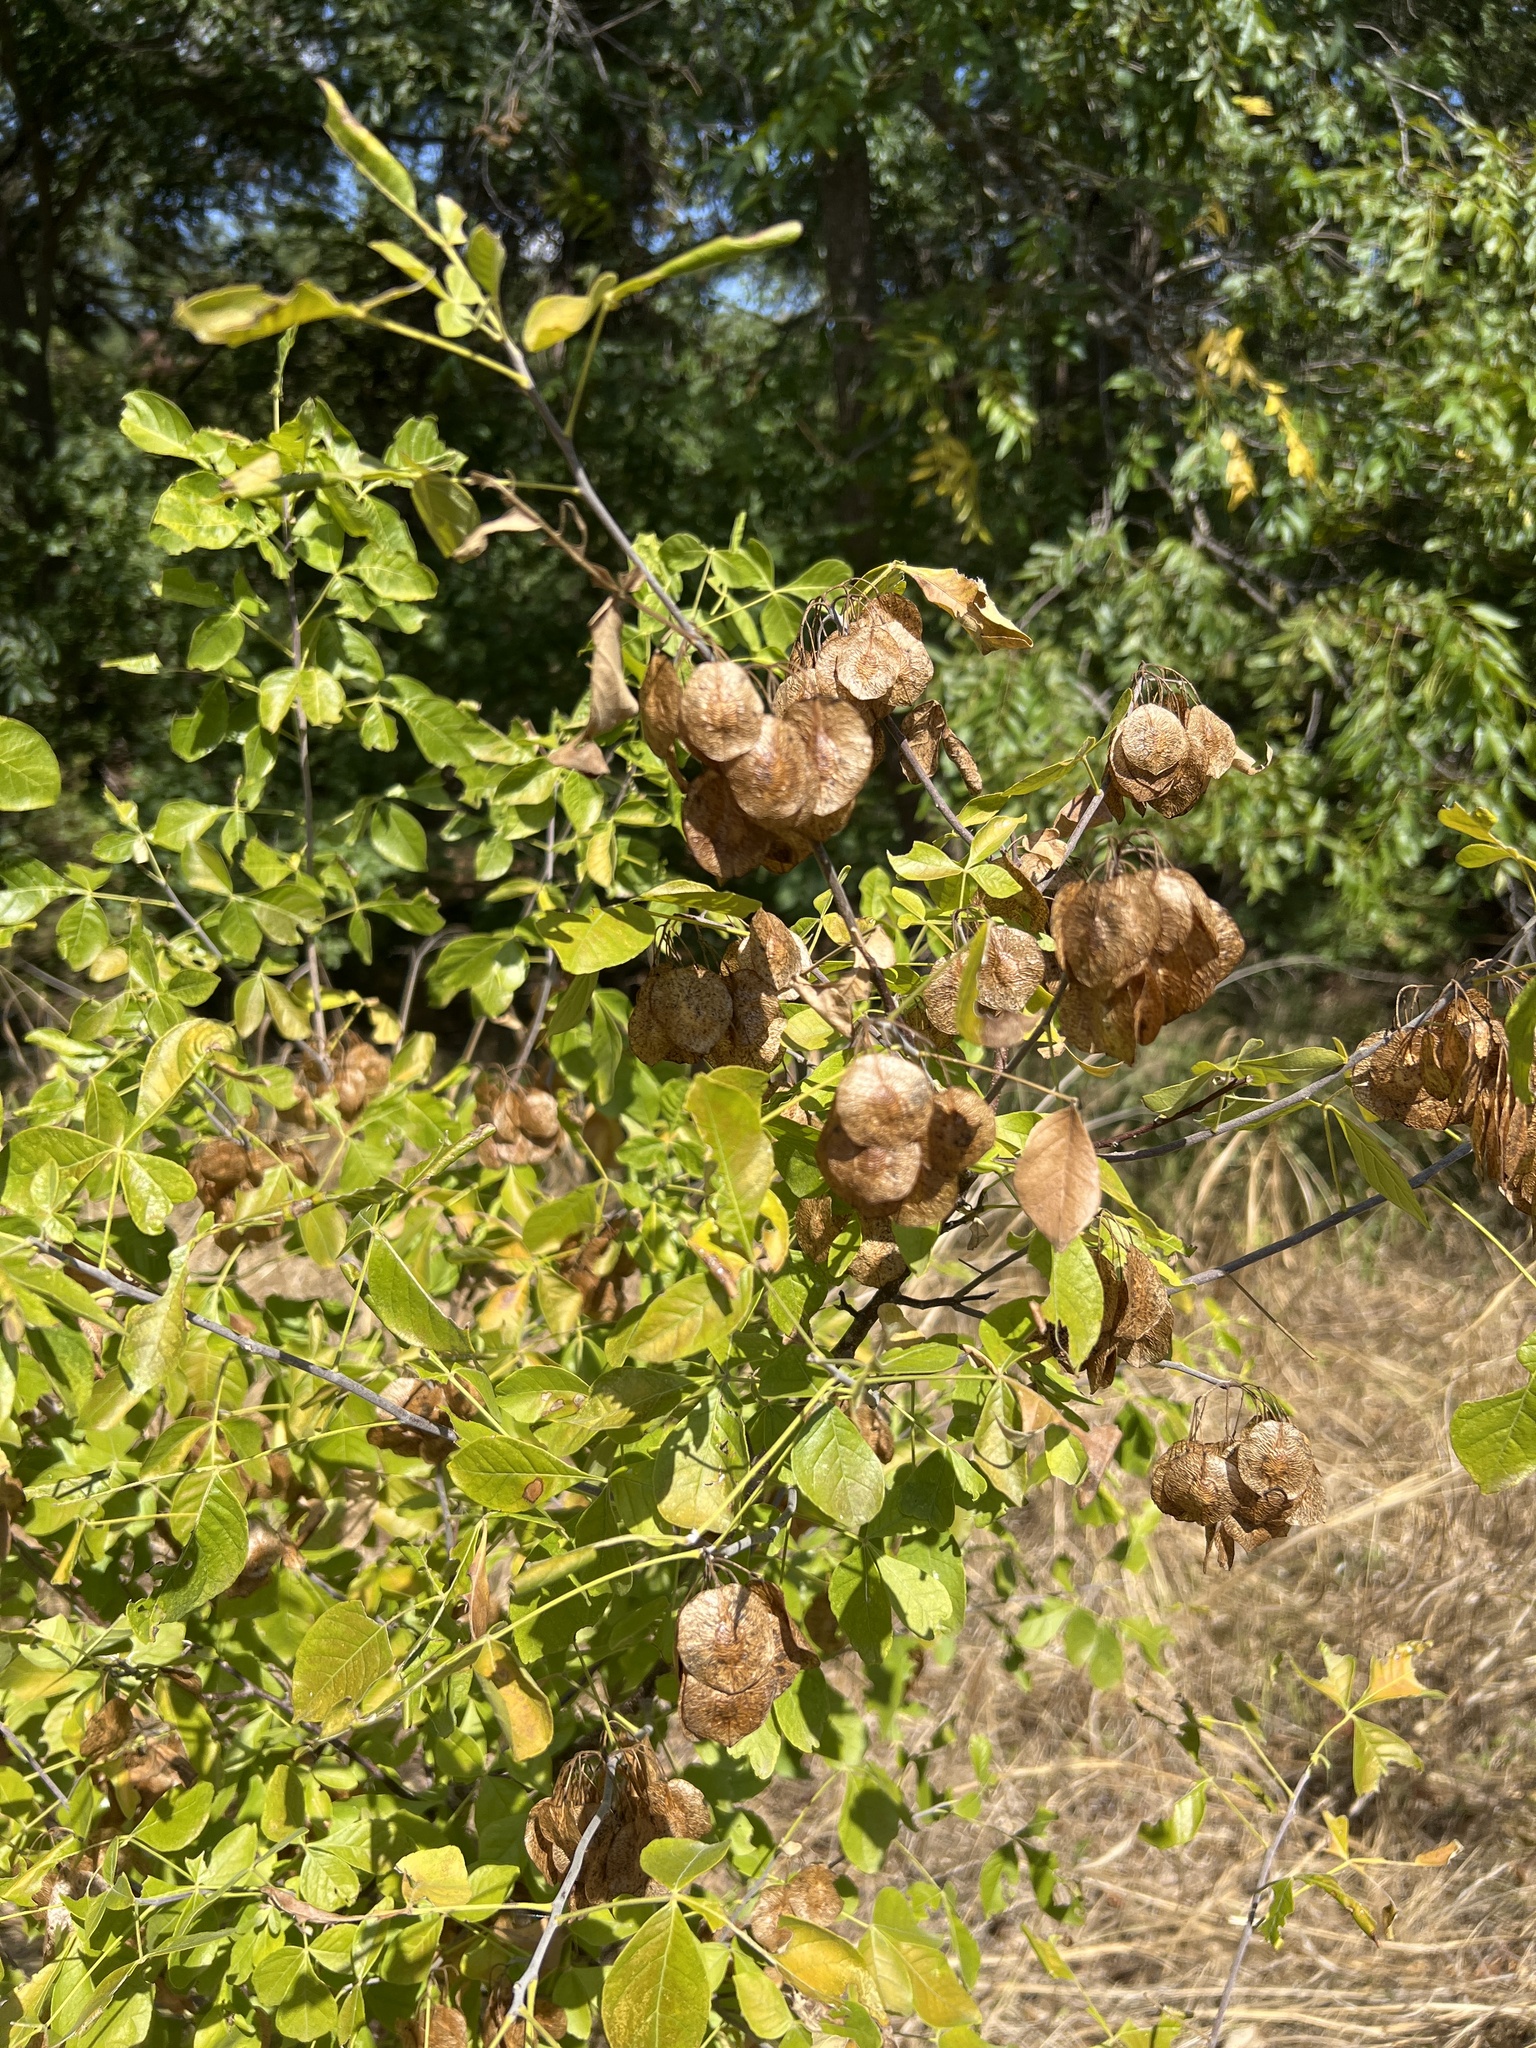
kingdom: Plantae
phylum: Tracheophyta
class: Magnoliopsida
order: Sapindales
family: Rutaceae
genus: Ptelea
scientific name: Ptelea trifoliata
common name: Common hop-tree
